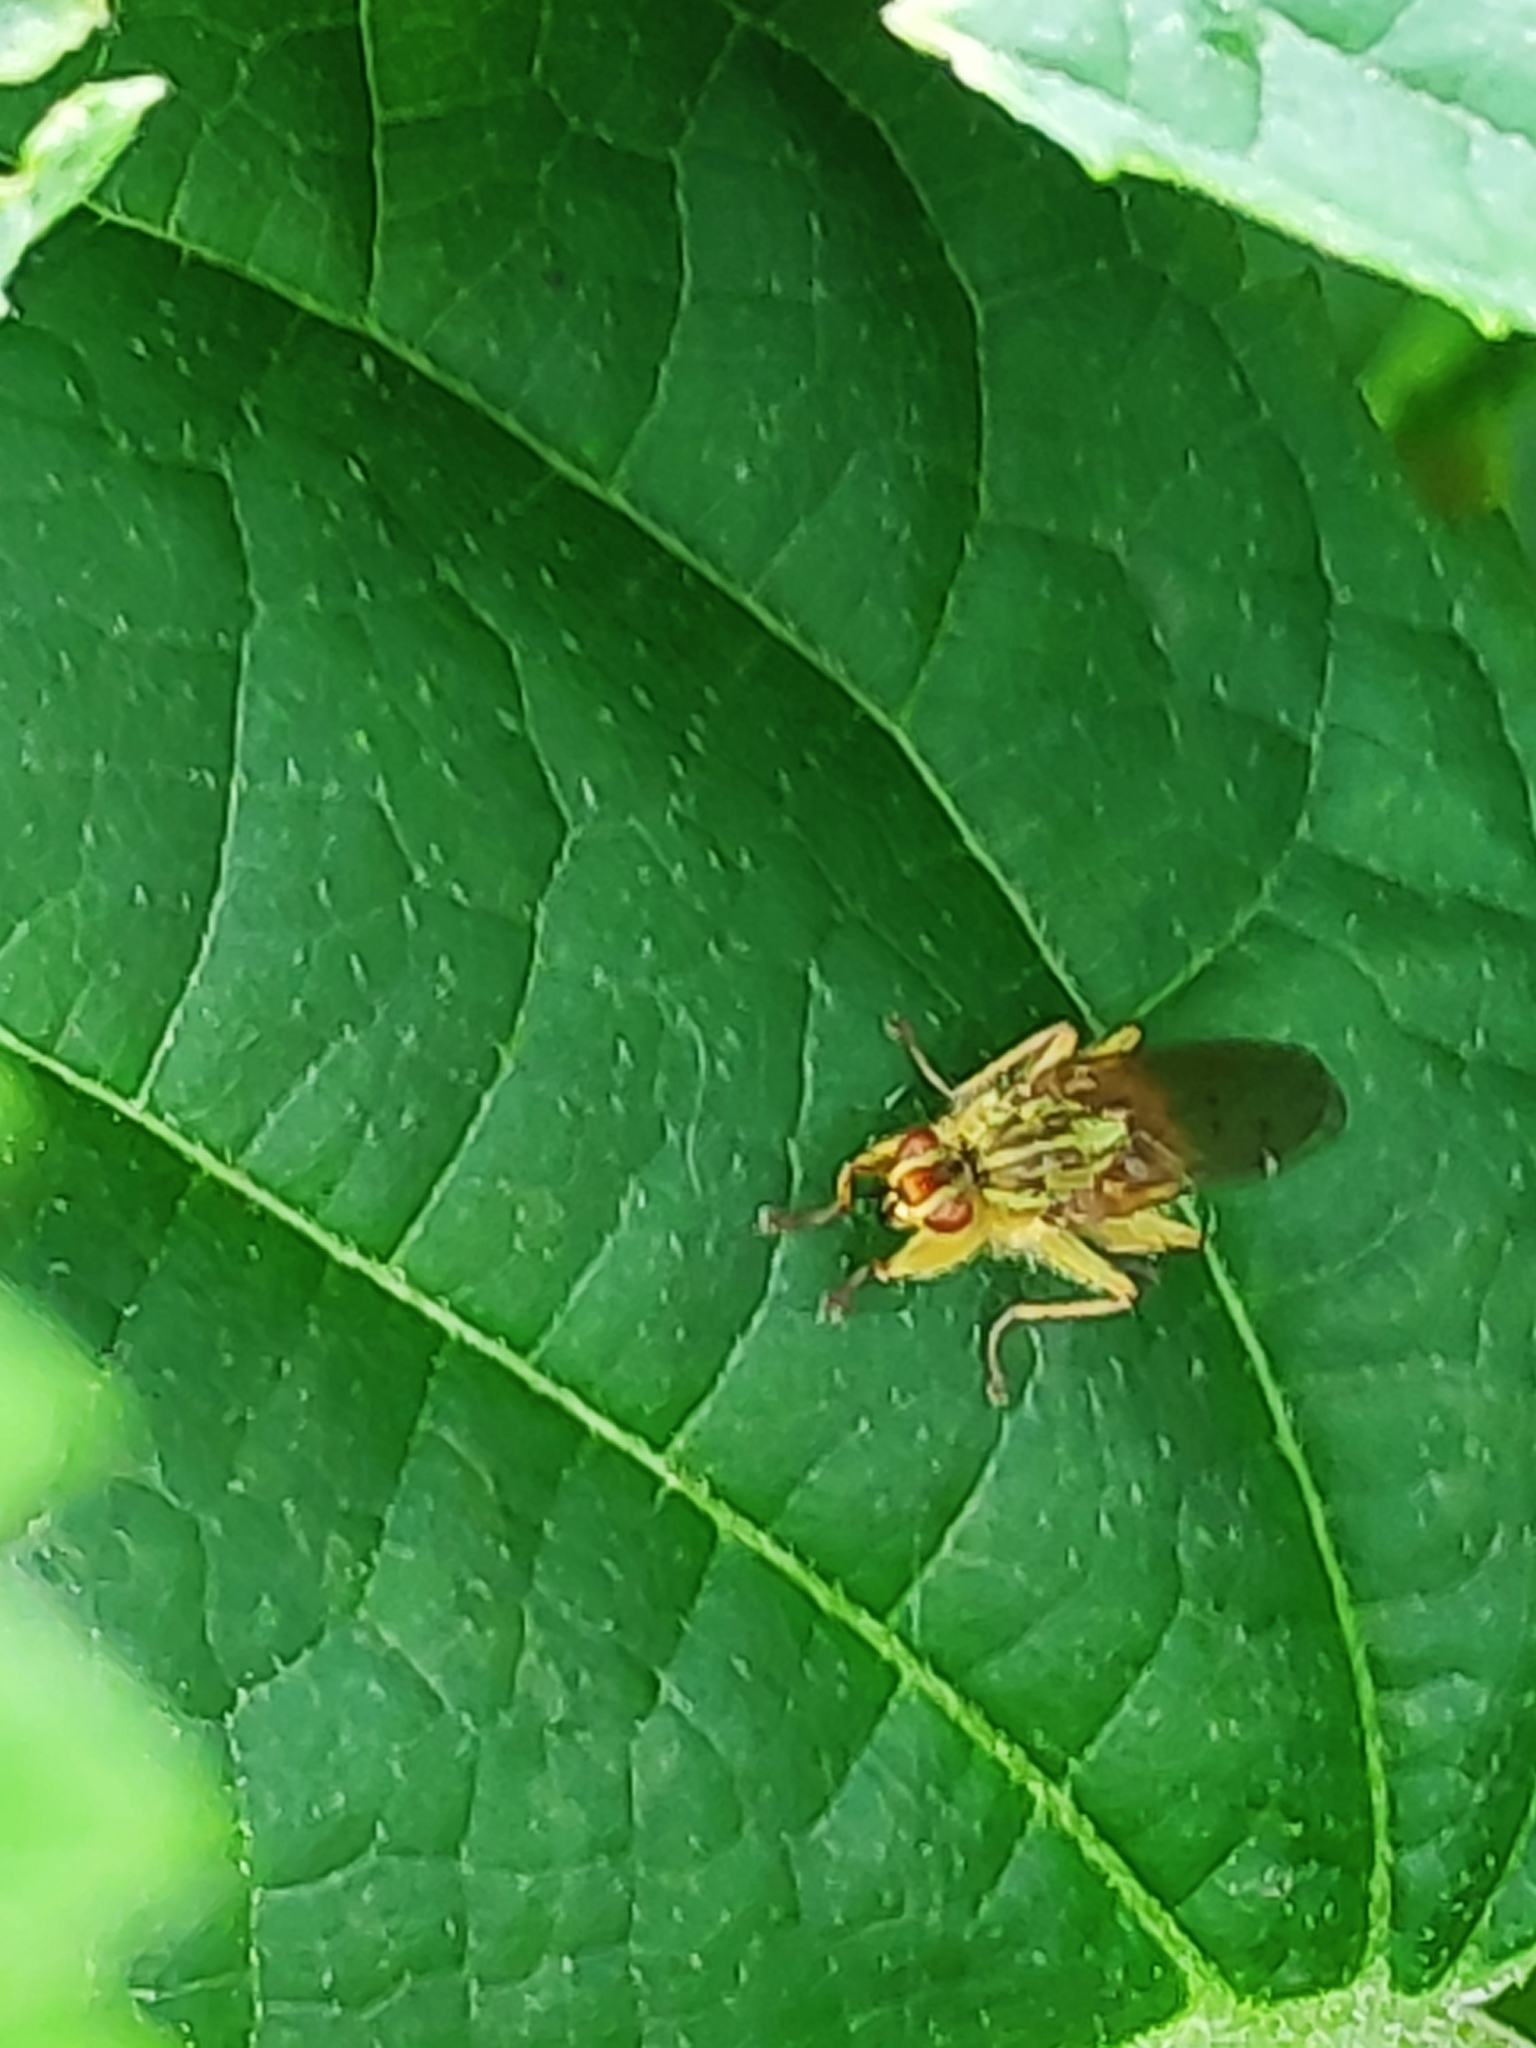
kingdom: Animalia
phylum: Arthropoda
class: Insecta
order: Diptera
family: Scathophagidae
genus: Scathophaga
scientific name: Scathophaga stercoraria
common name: Yellow dung fly
